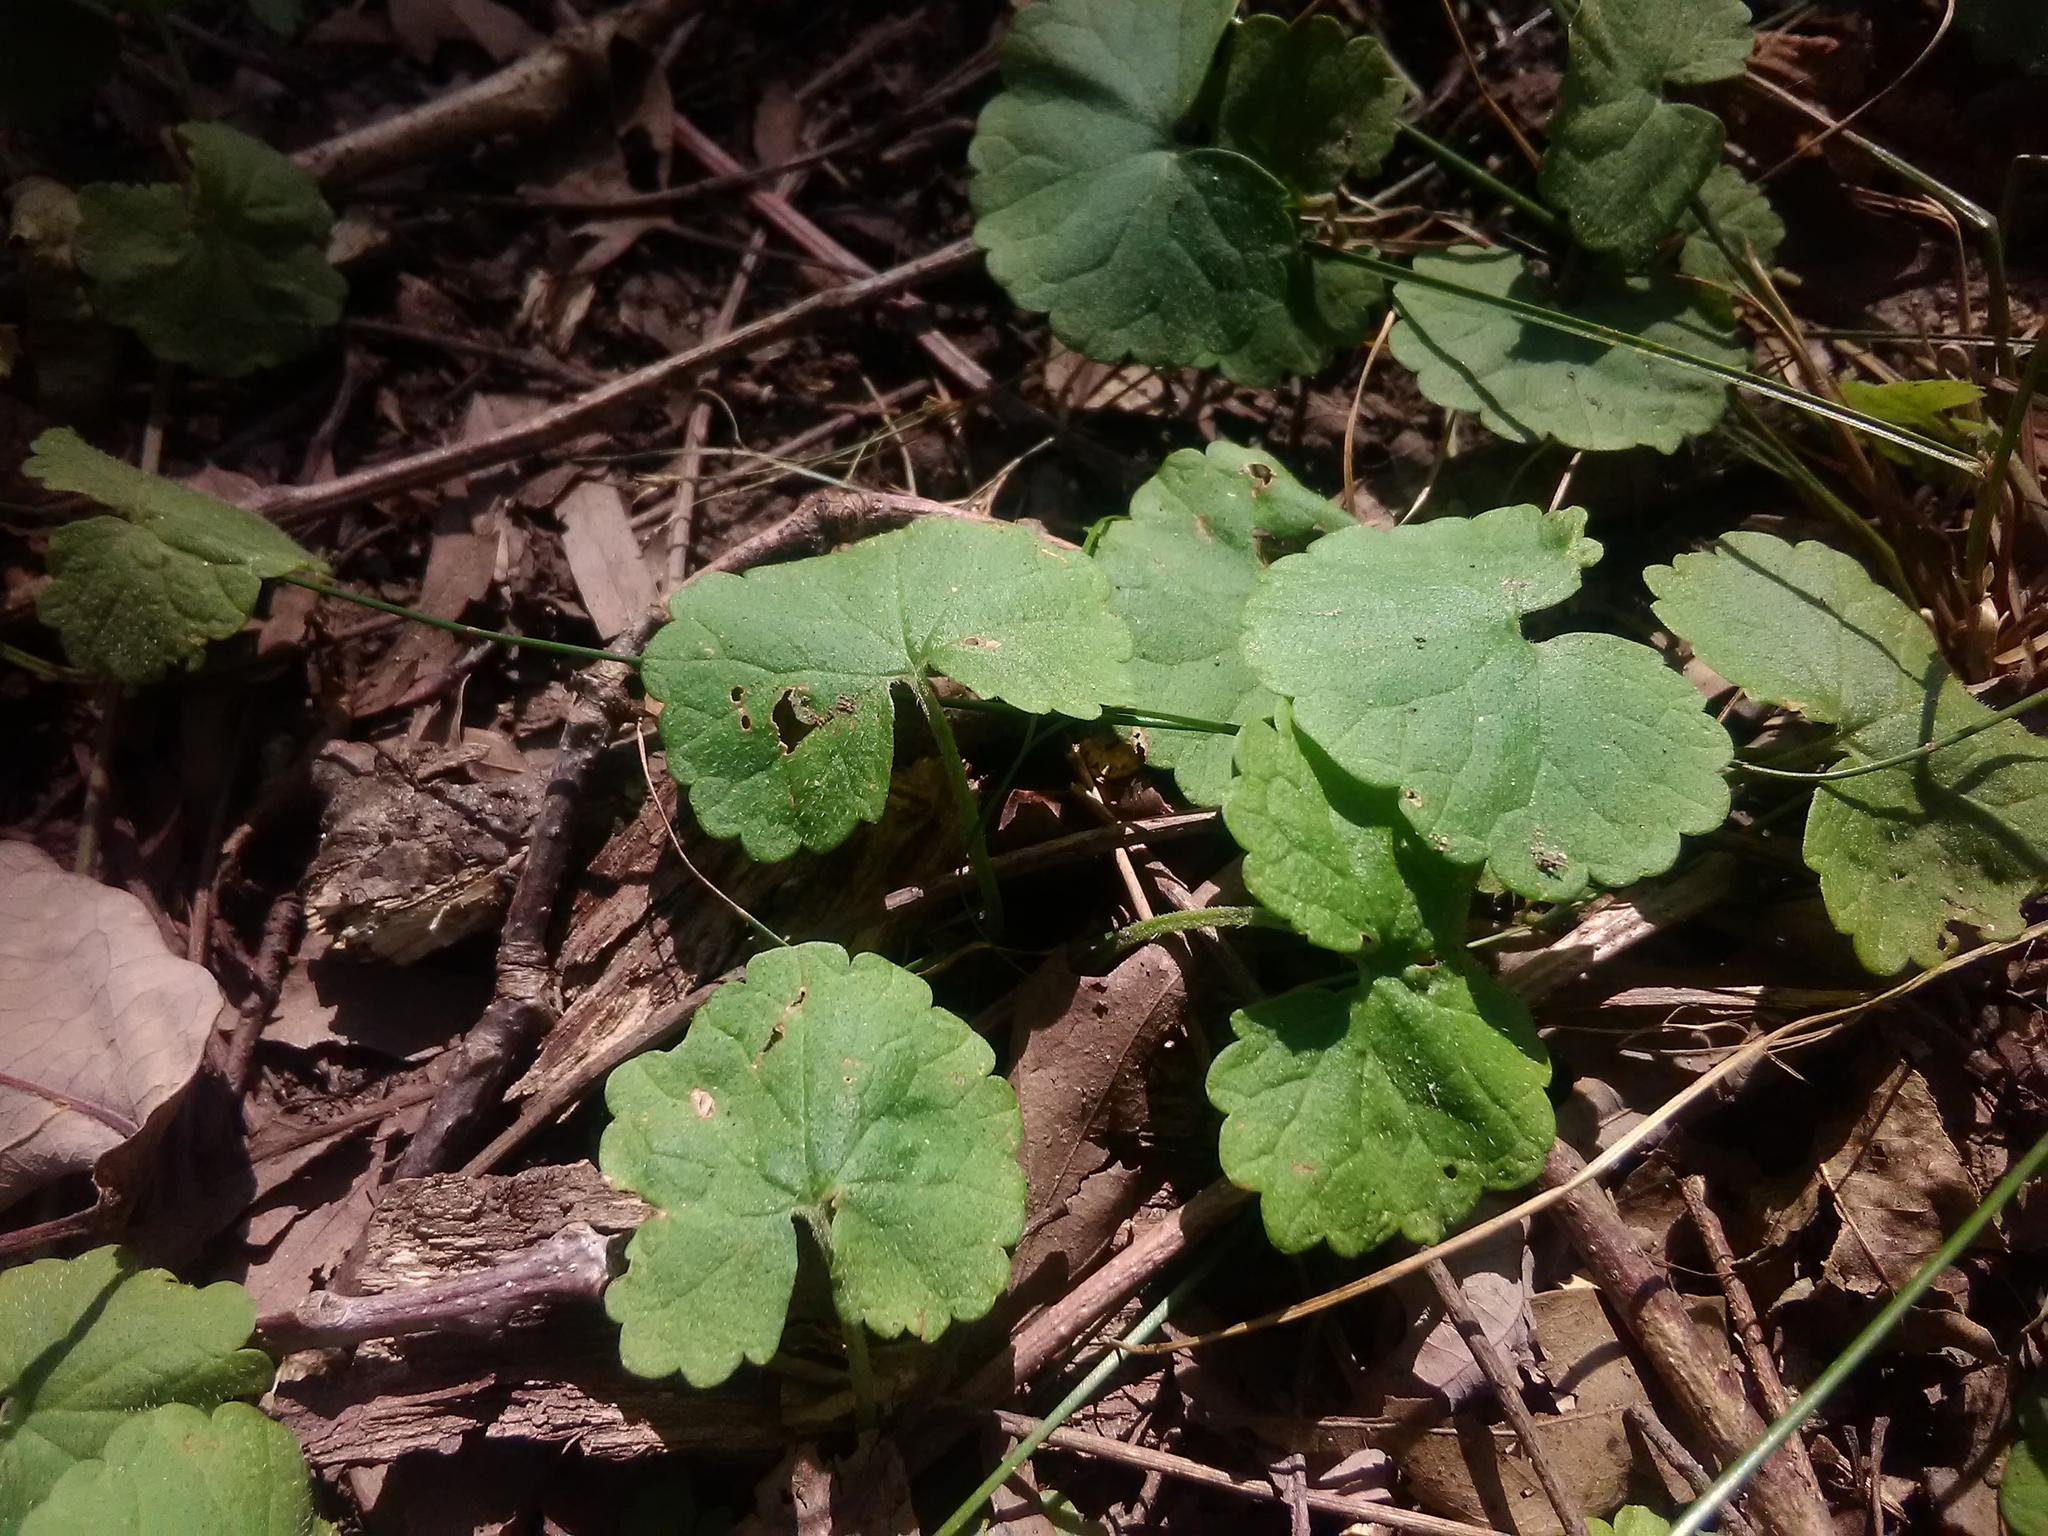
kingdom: Plantae
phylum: Tracheophyta
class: Magnoliopsida
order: Lamiales
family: Lamiaceae
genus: Glechoma
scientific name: Glechoma hederacea
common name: Ground ivy
